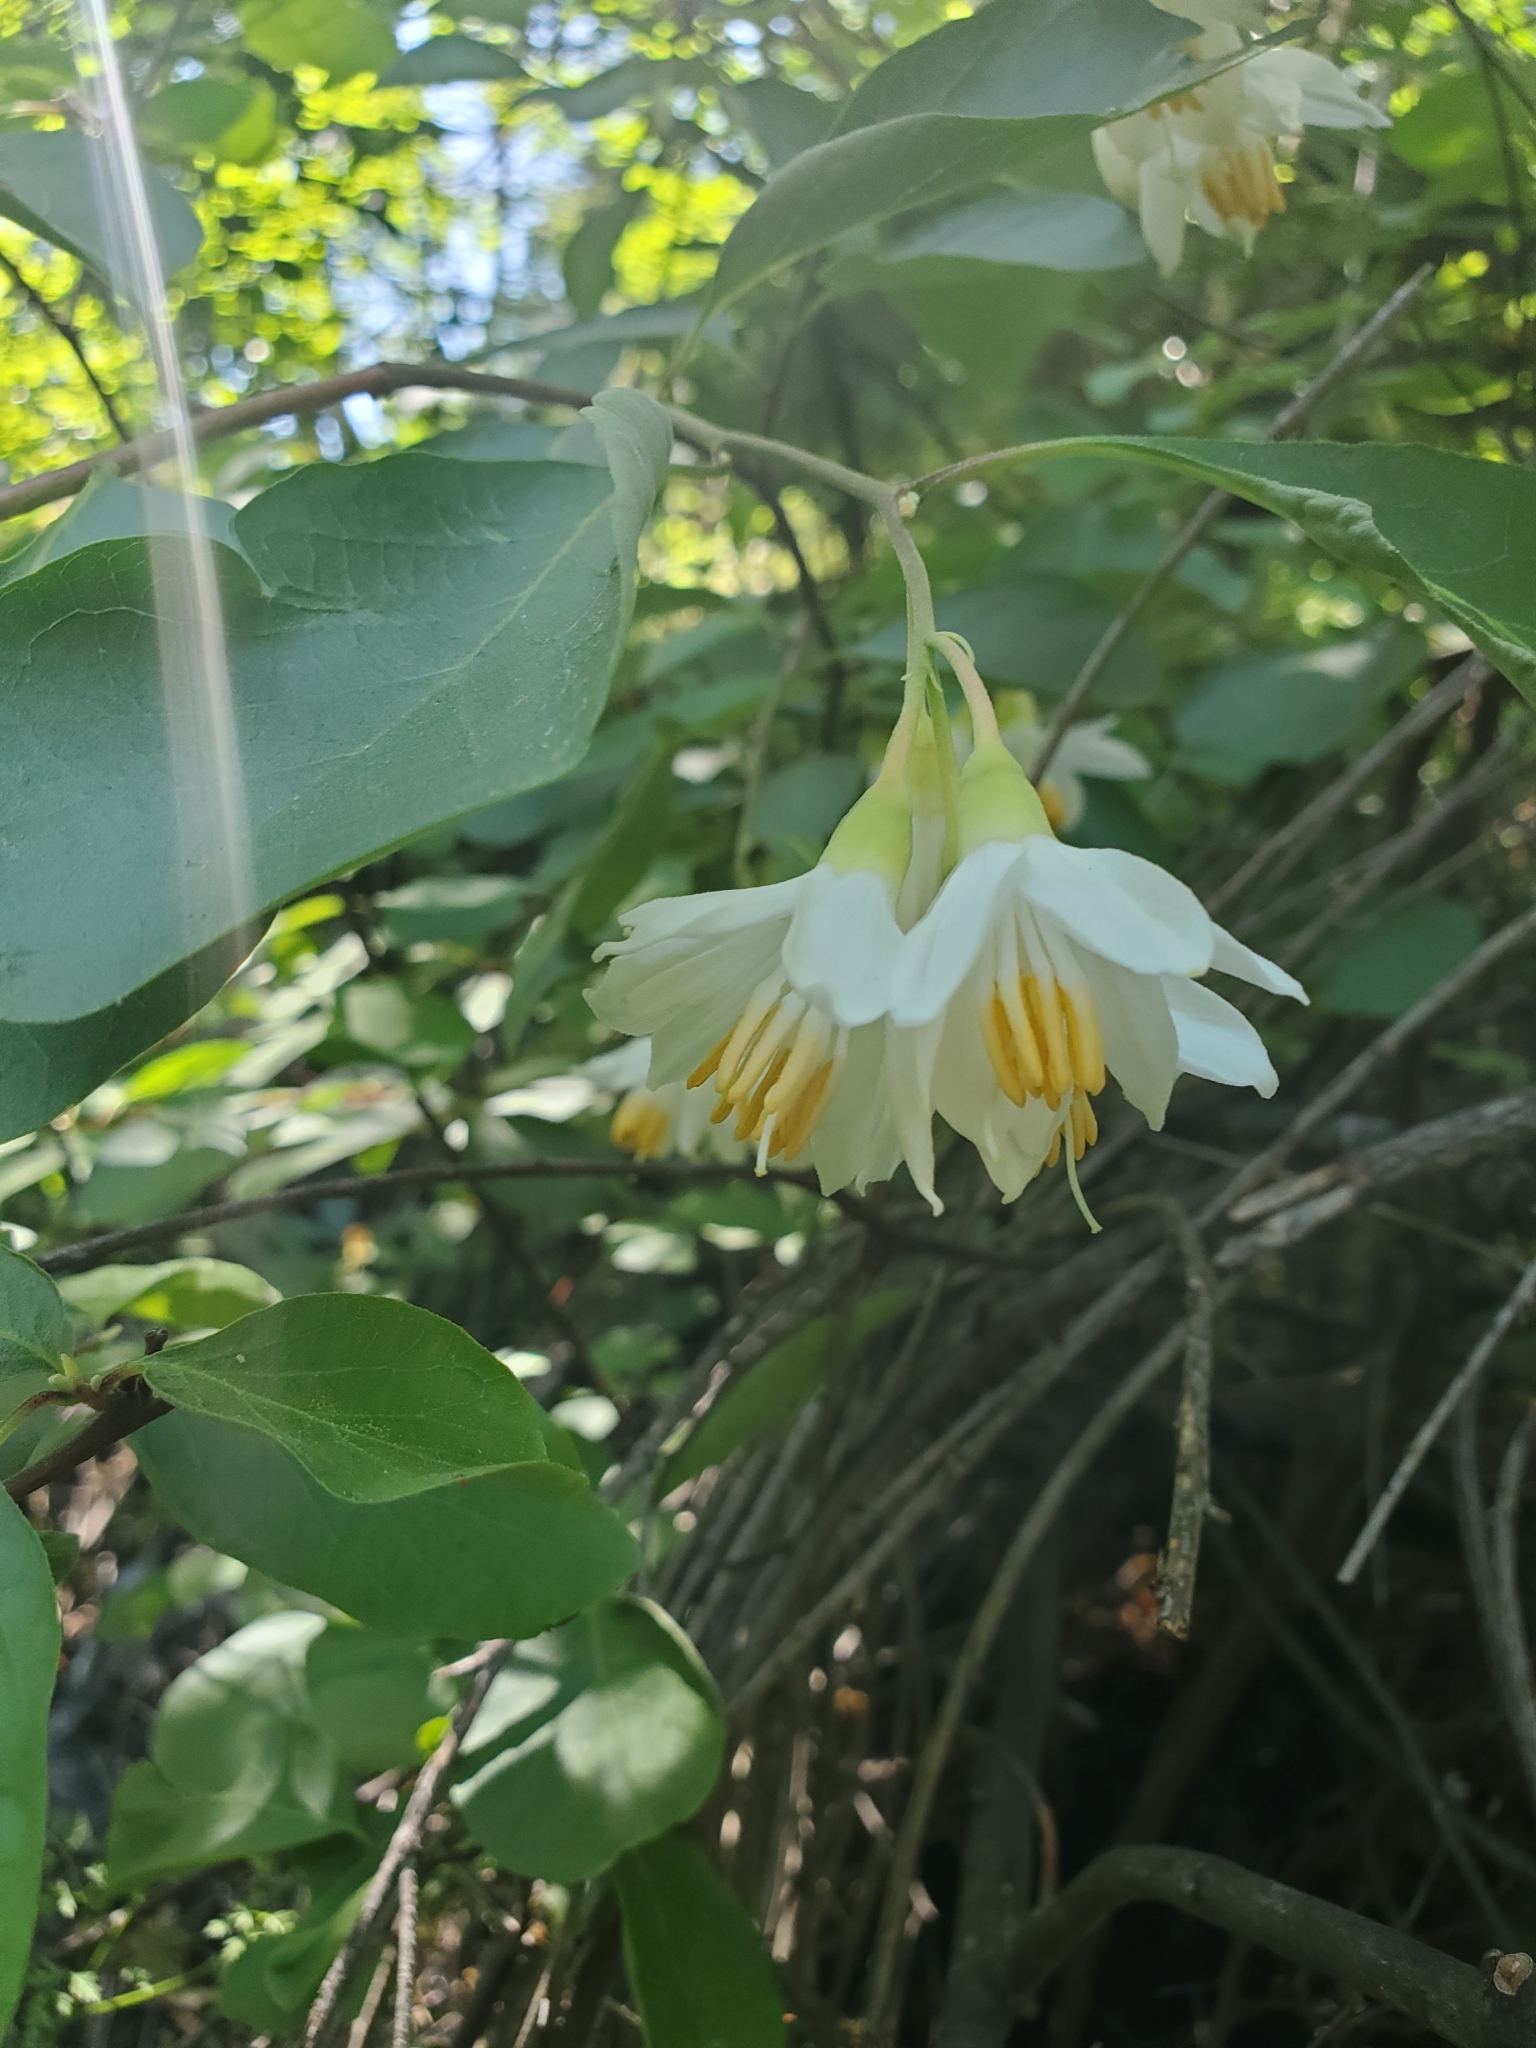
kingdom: Plantae
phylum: Tracheophyta
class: Magnoliopsida
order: Ericales
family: Styracaceae
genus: Styrax
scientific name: Styrax redivivus
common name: California styrax
